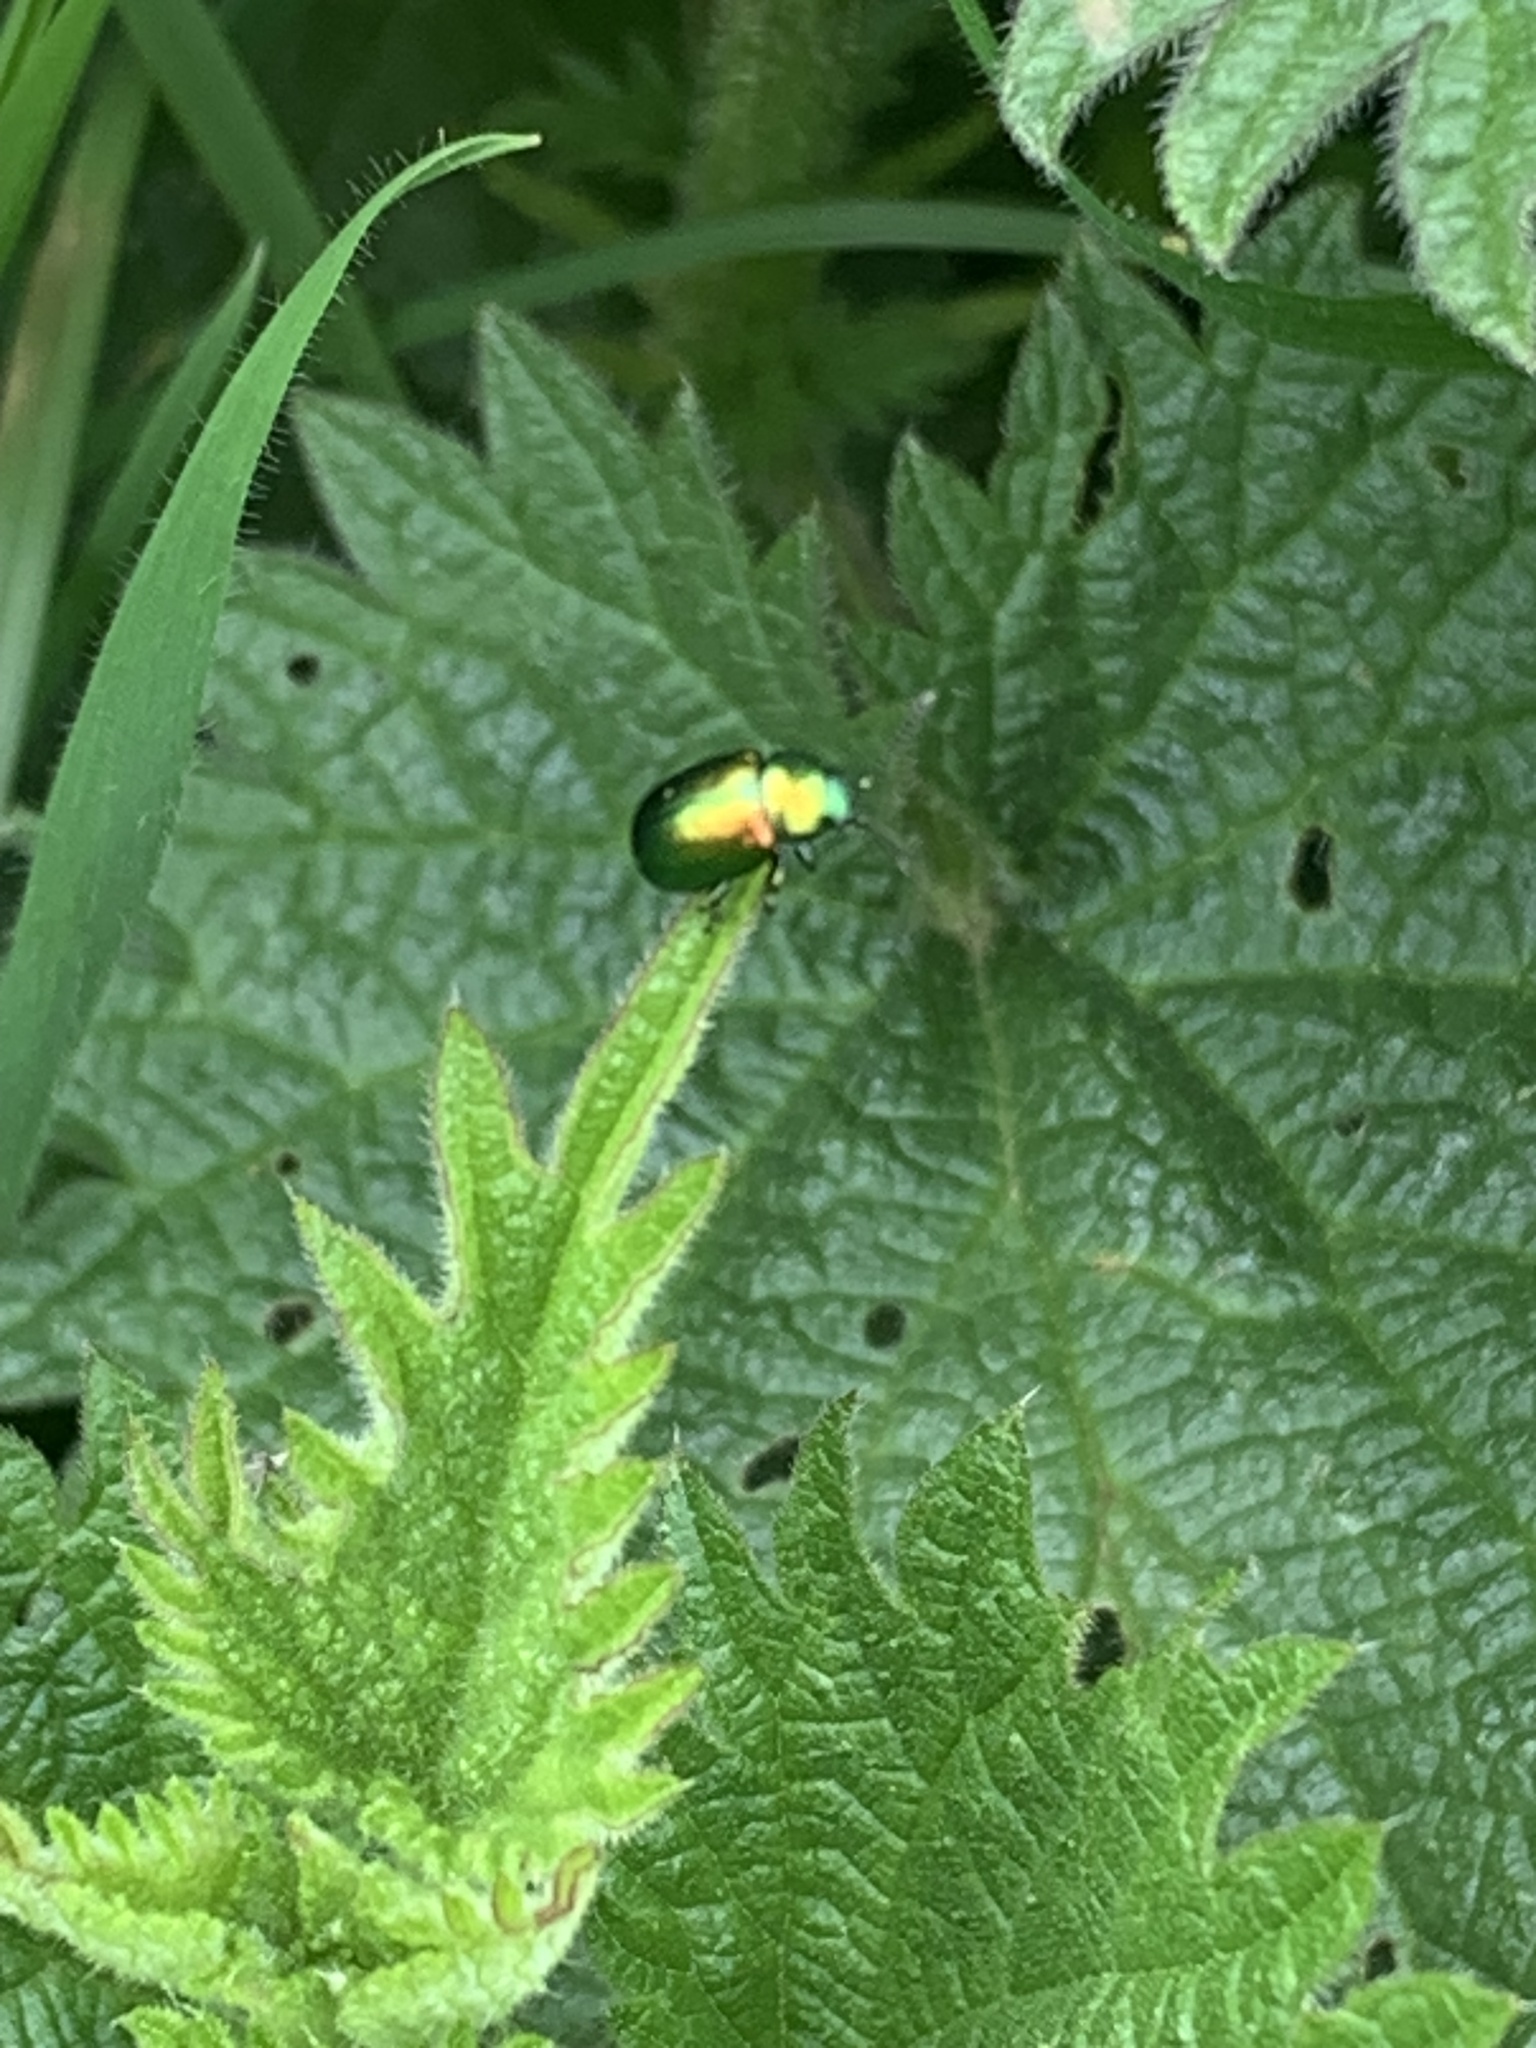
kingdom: Animalia
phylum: Arthropoda
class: Insecta
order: Coleoptera
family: Chrysomelidae
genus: Gastrophysa
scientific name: Gastrophysa viridula
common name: Green dock beetle
